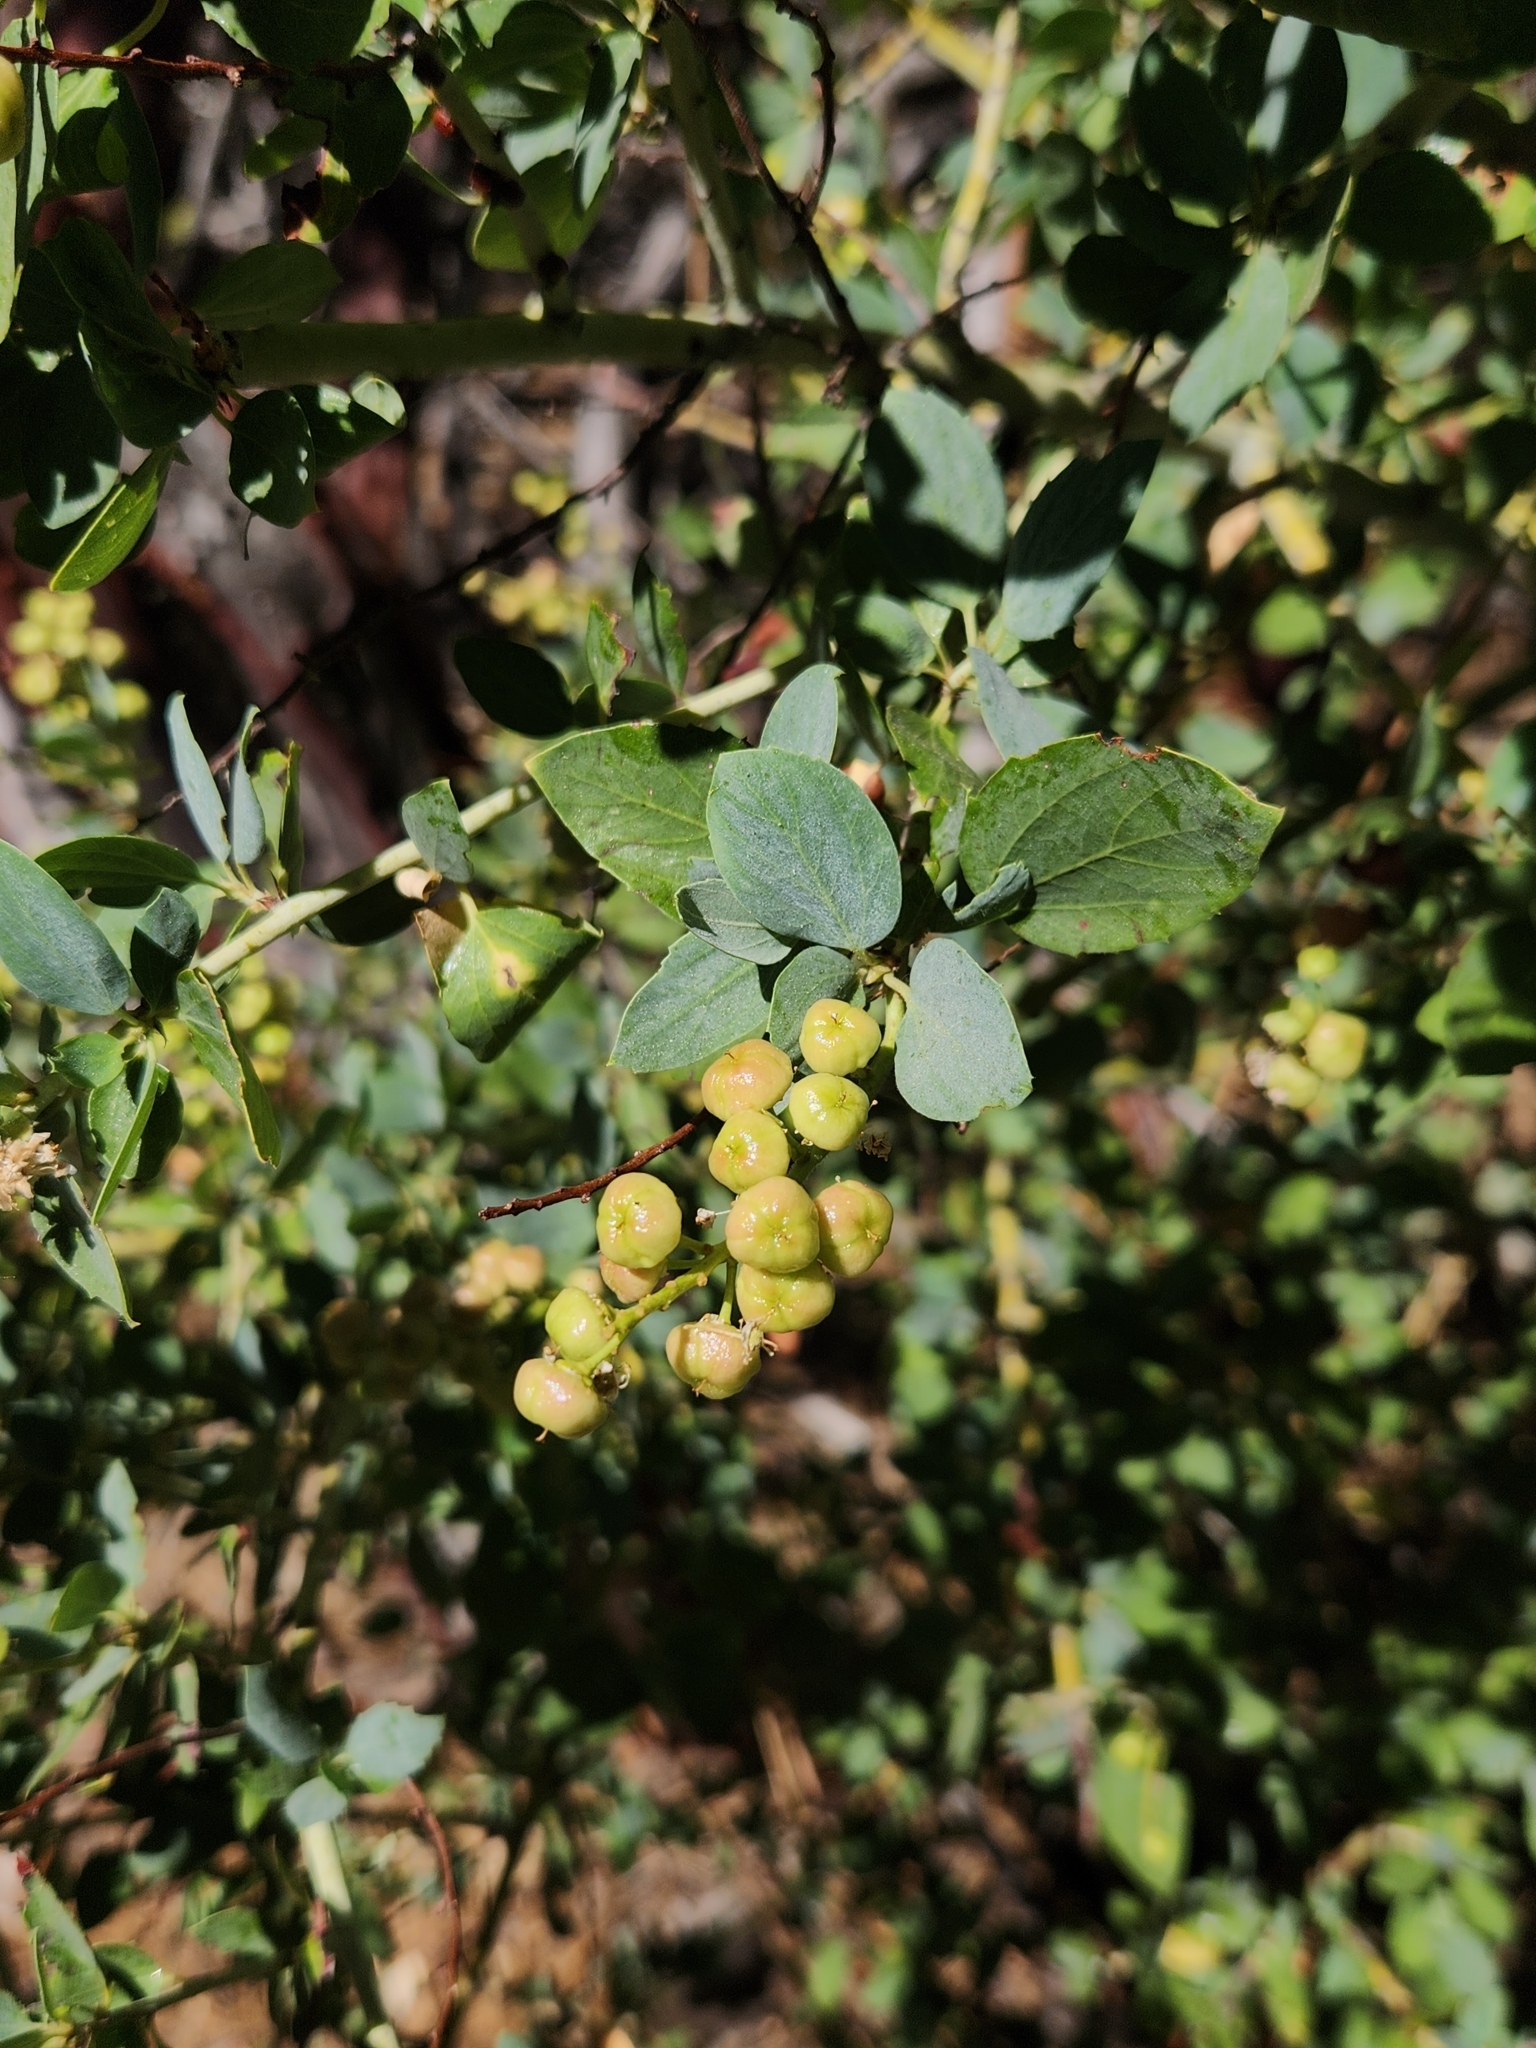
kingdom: Plantae
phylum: Tracheophyta
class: Magnoliopsida
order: Rosales
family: Rhamnaceae
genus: Ceanothus
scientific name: Ceanothus leucodermis
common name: Chaparral whitethorn
